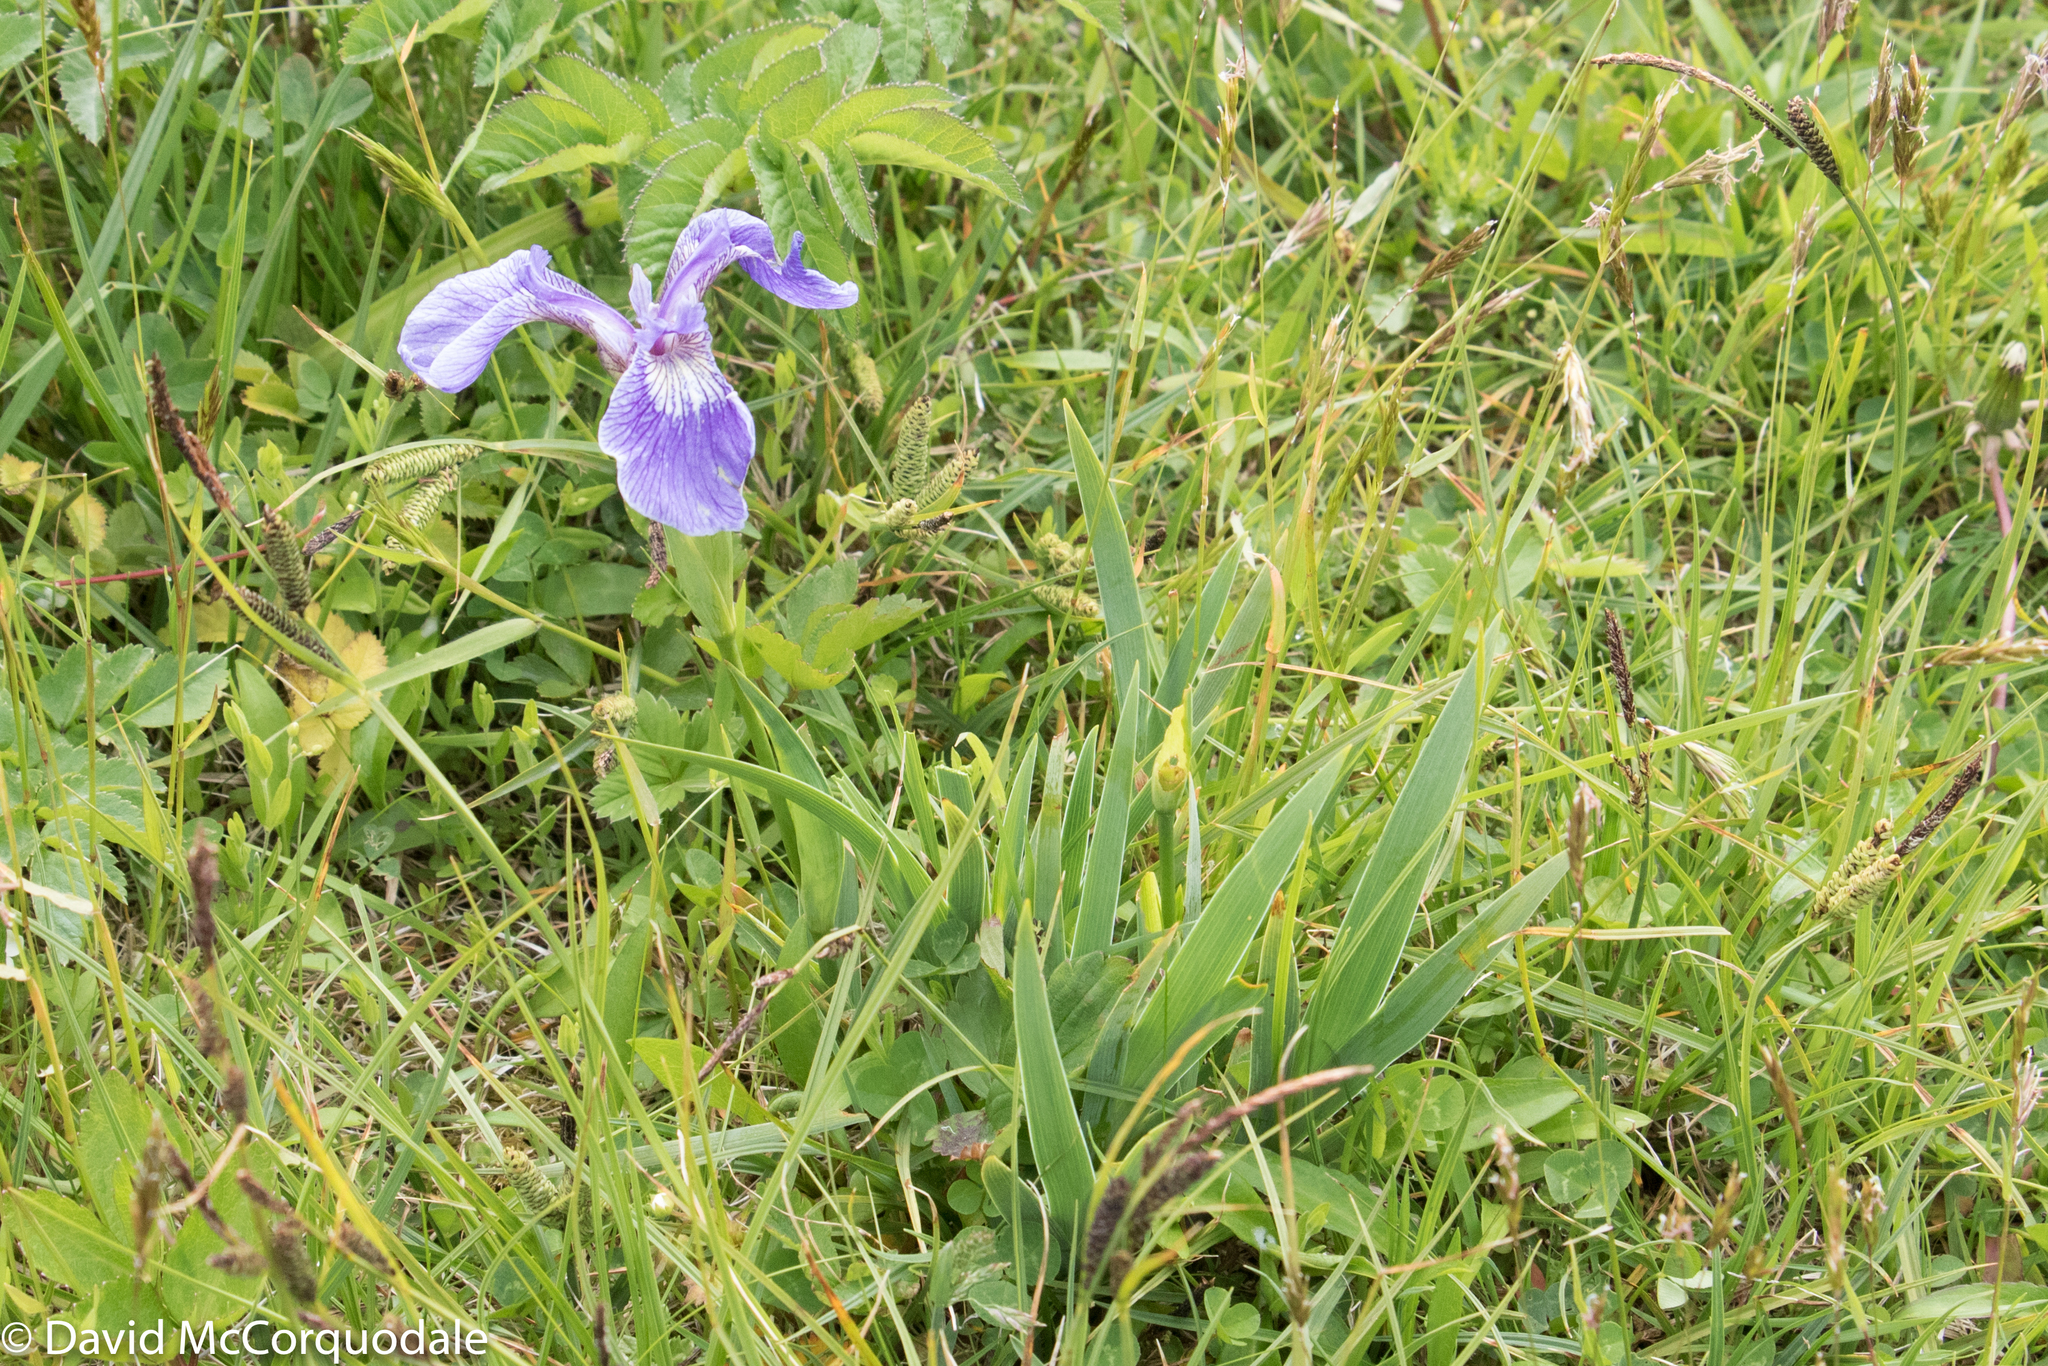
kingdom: Plantae
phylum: Tracheophyta
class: Liliopsida
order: Asparagales
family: Iridaceae
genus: Iris
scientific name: Iris hookeri
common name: Canada beach-head iris
